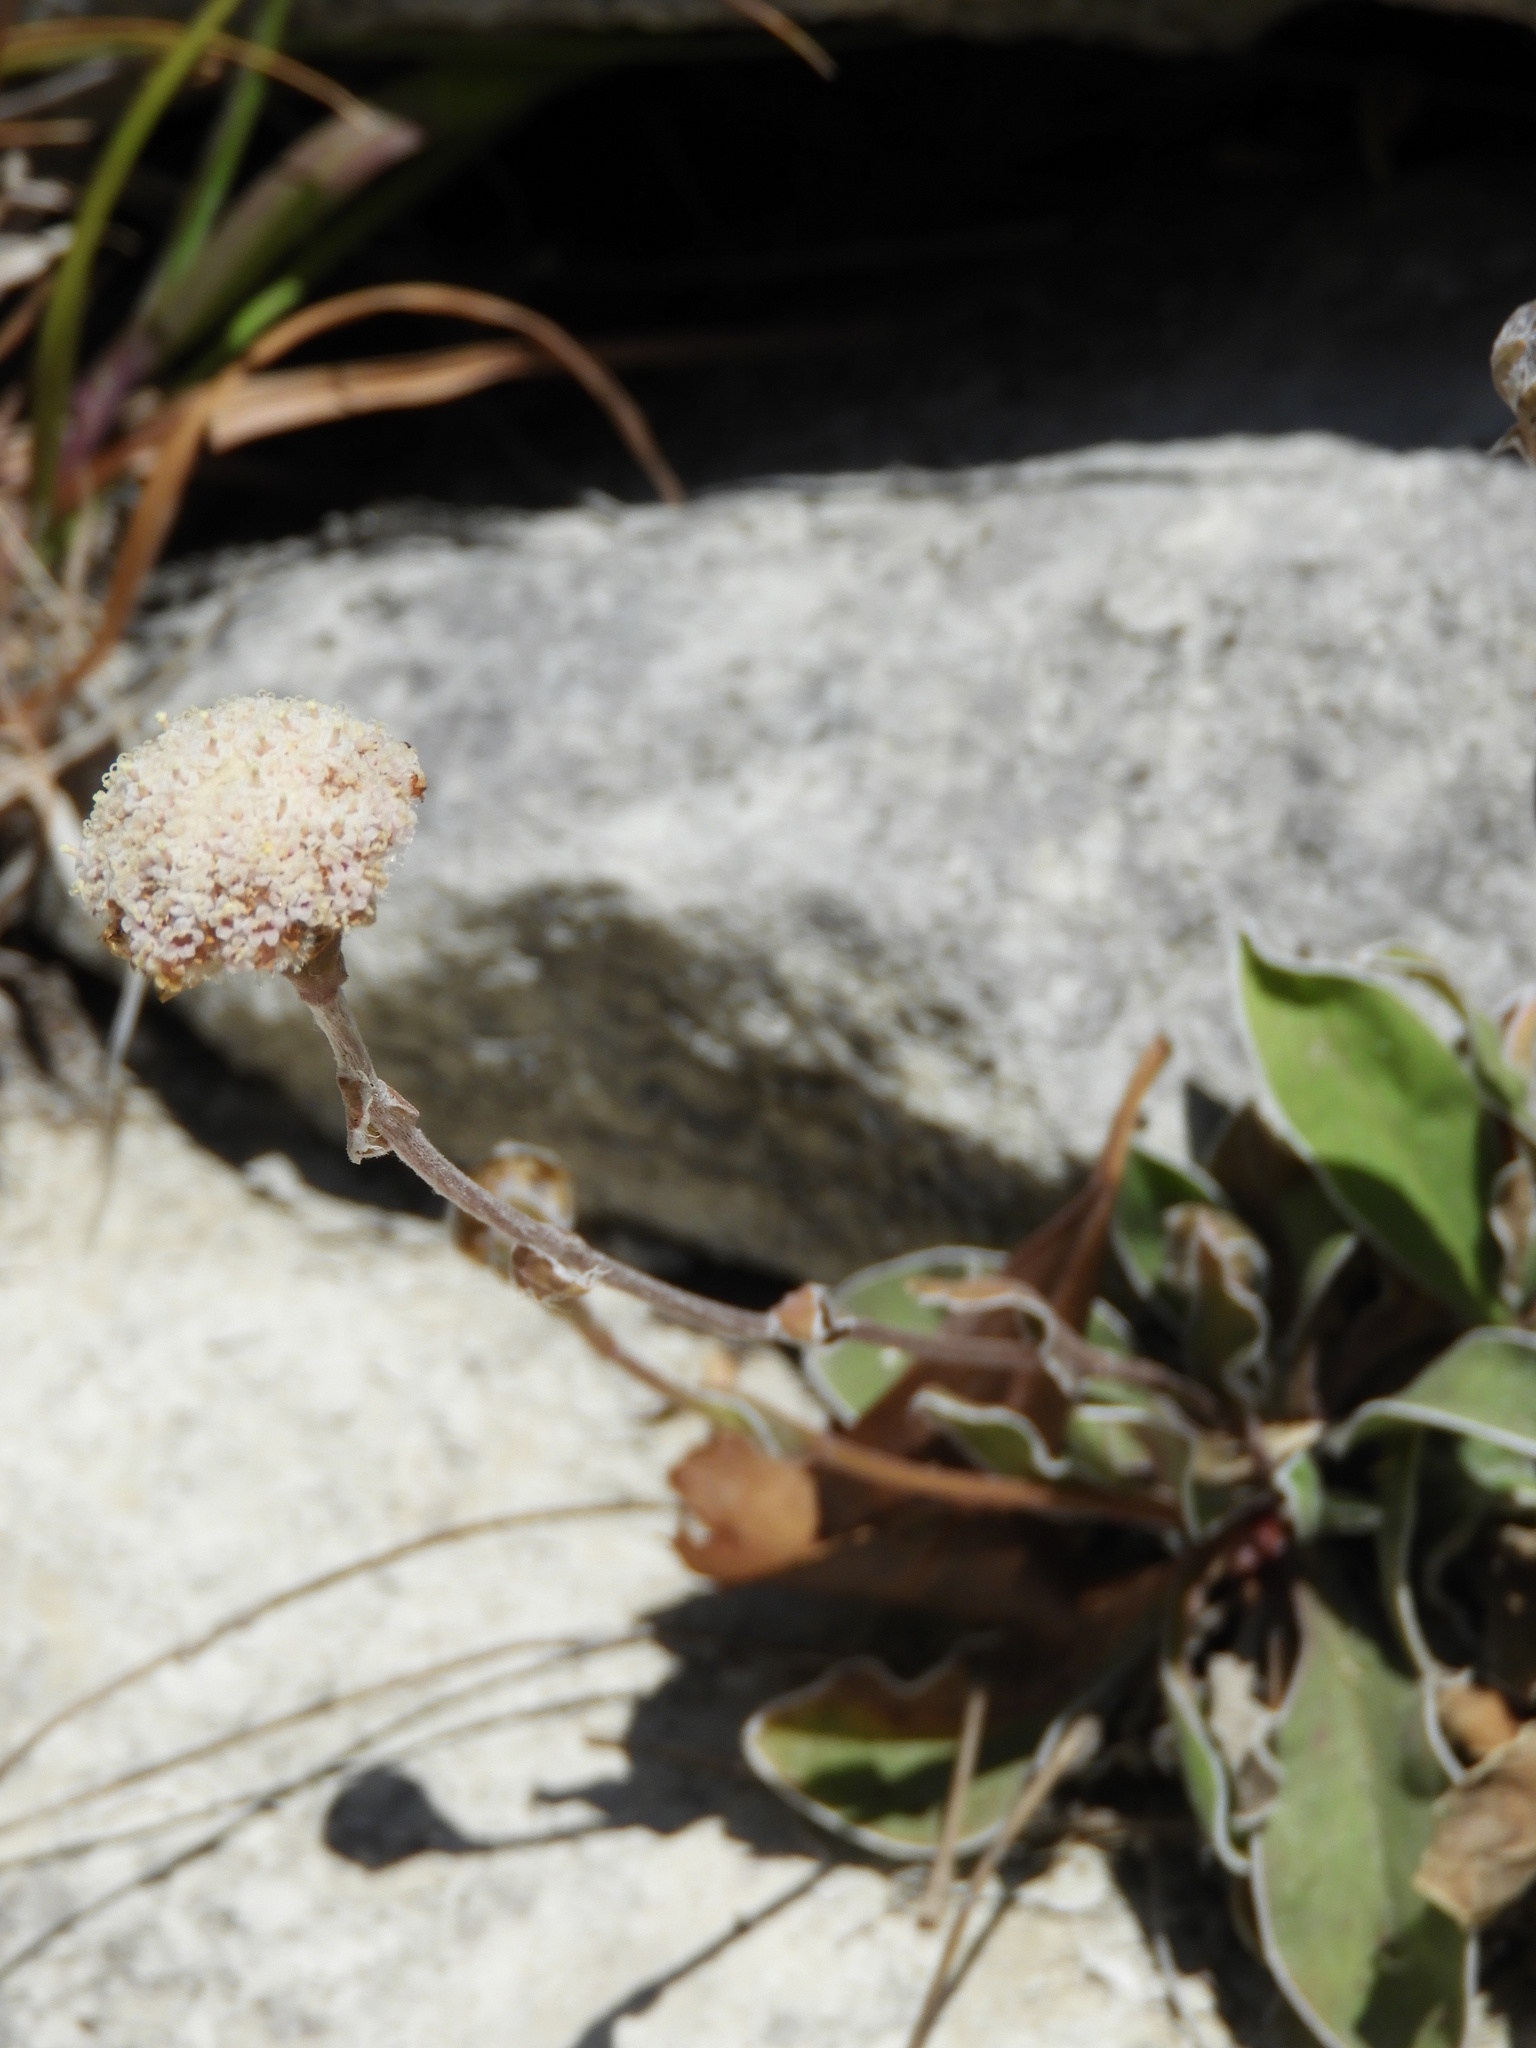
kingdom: Plantae
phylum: Tracheophyta
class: Magnoliopsida
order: Asterales
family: Asteraceae
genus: Craspedia
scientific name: Craspedia uniflora
